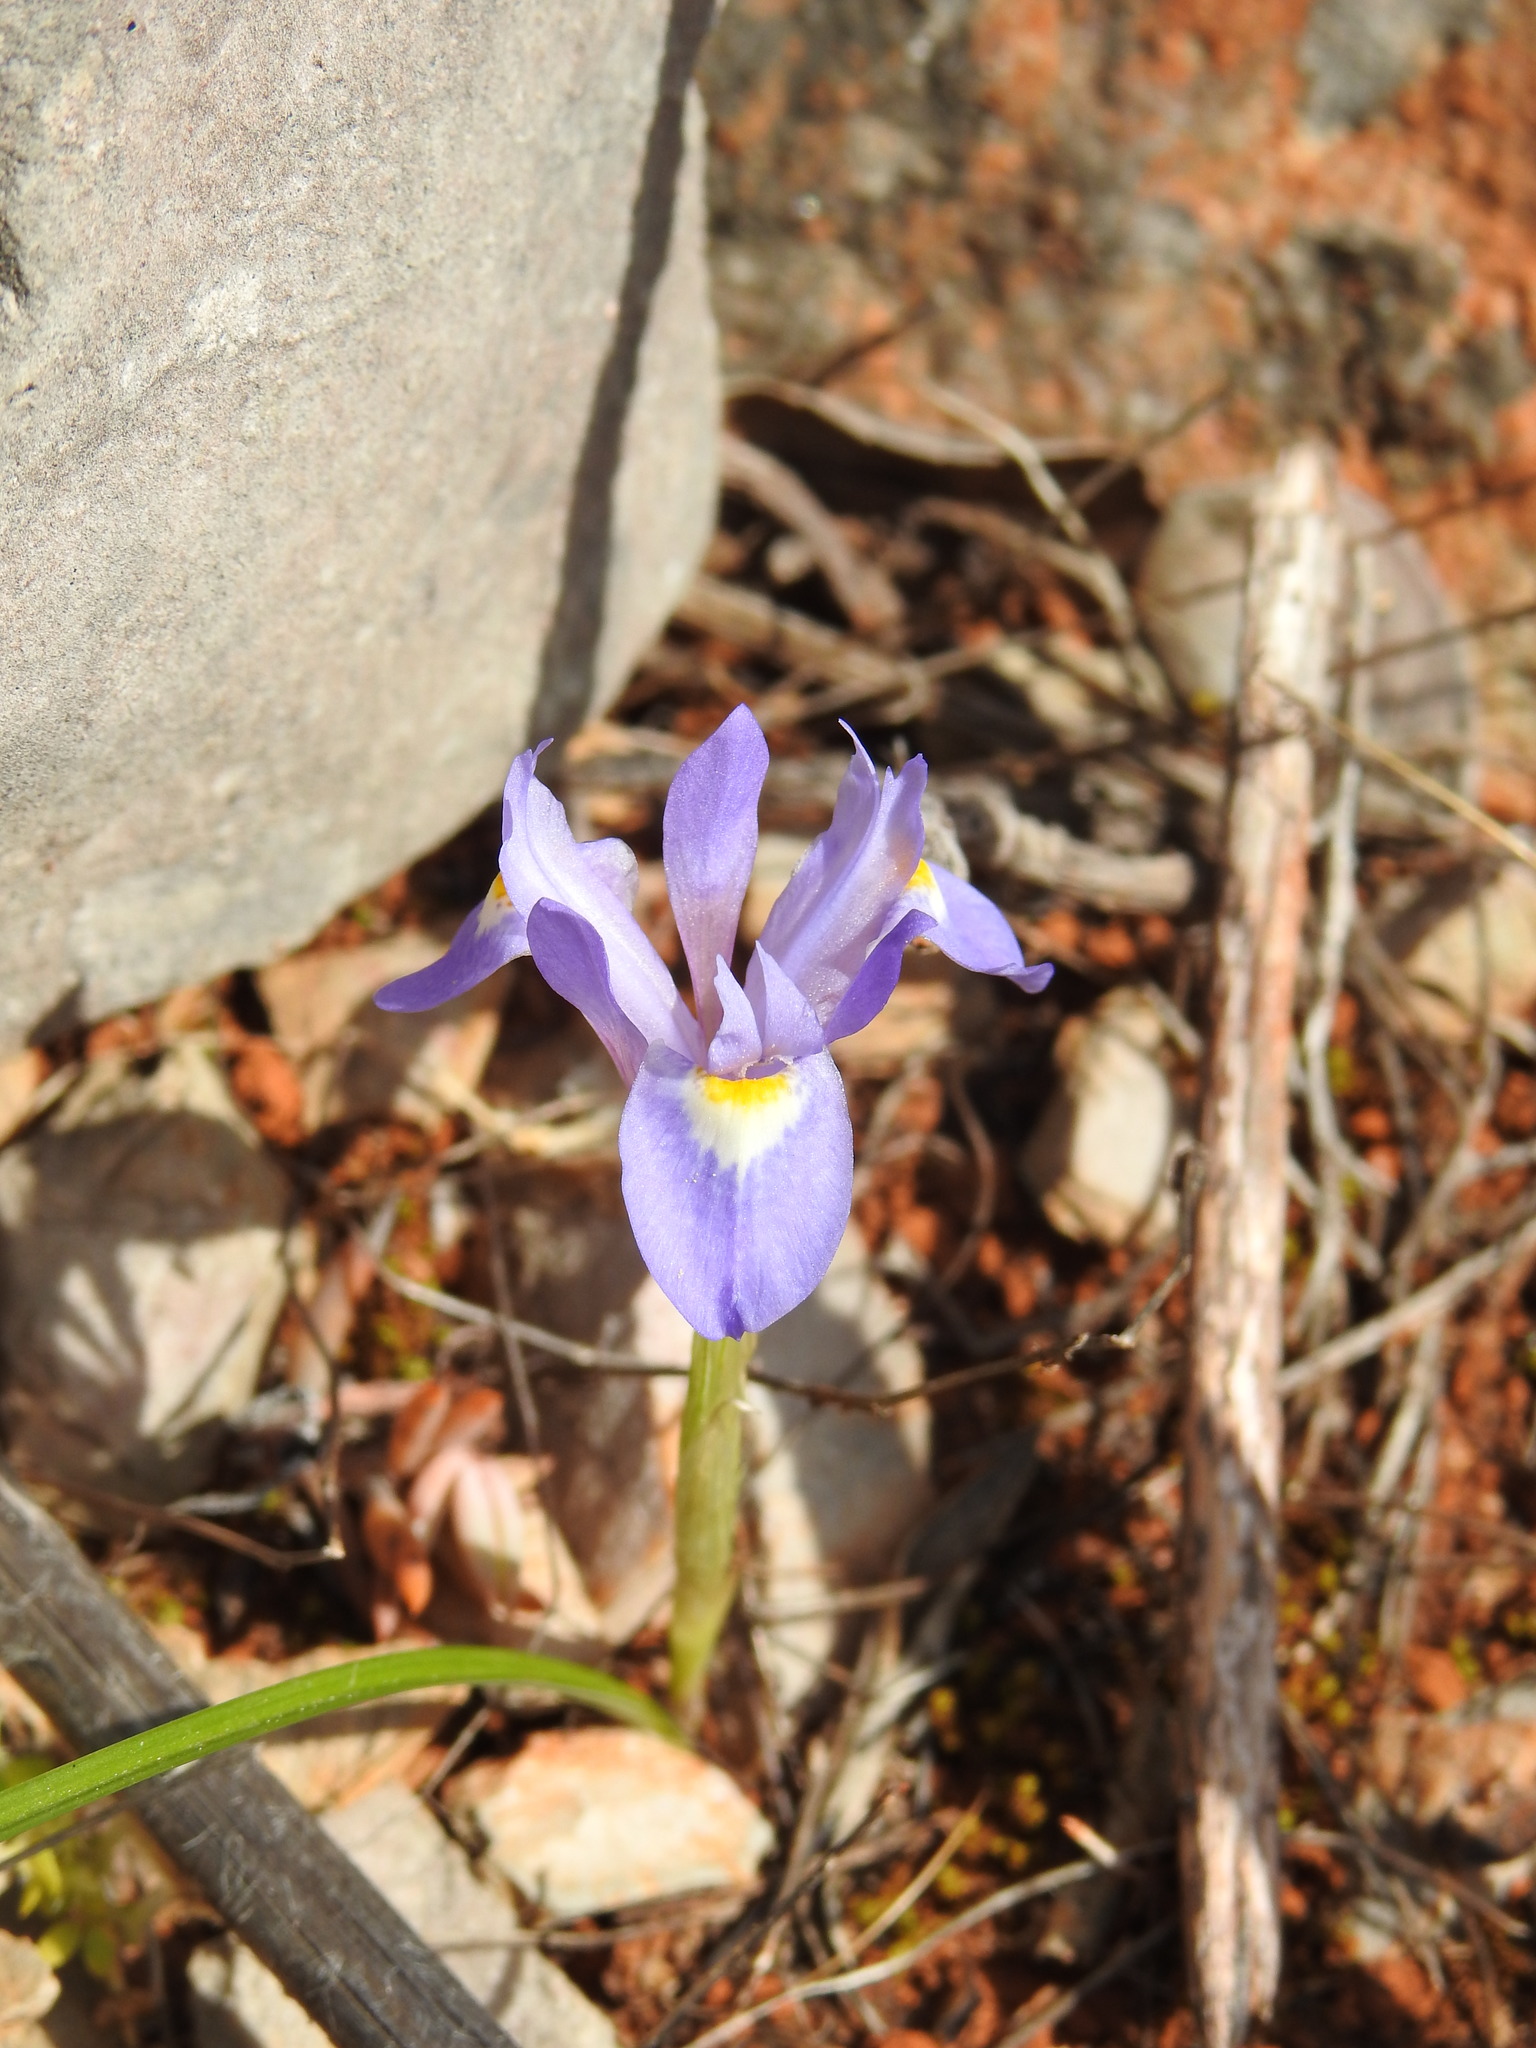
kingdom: Plantae
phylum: Tracheophyta
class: Liliopsida
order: Asparagales
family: Iridaceae
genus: Moraea
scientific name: Moraea sisyrinchium
